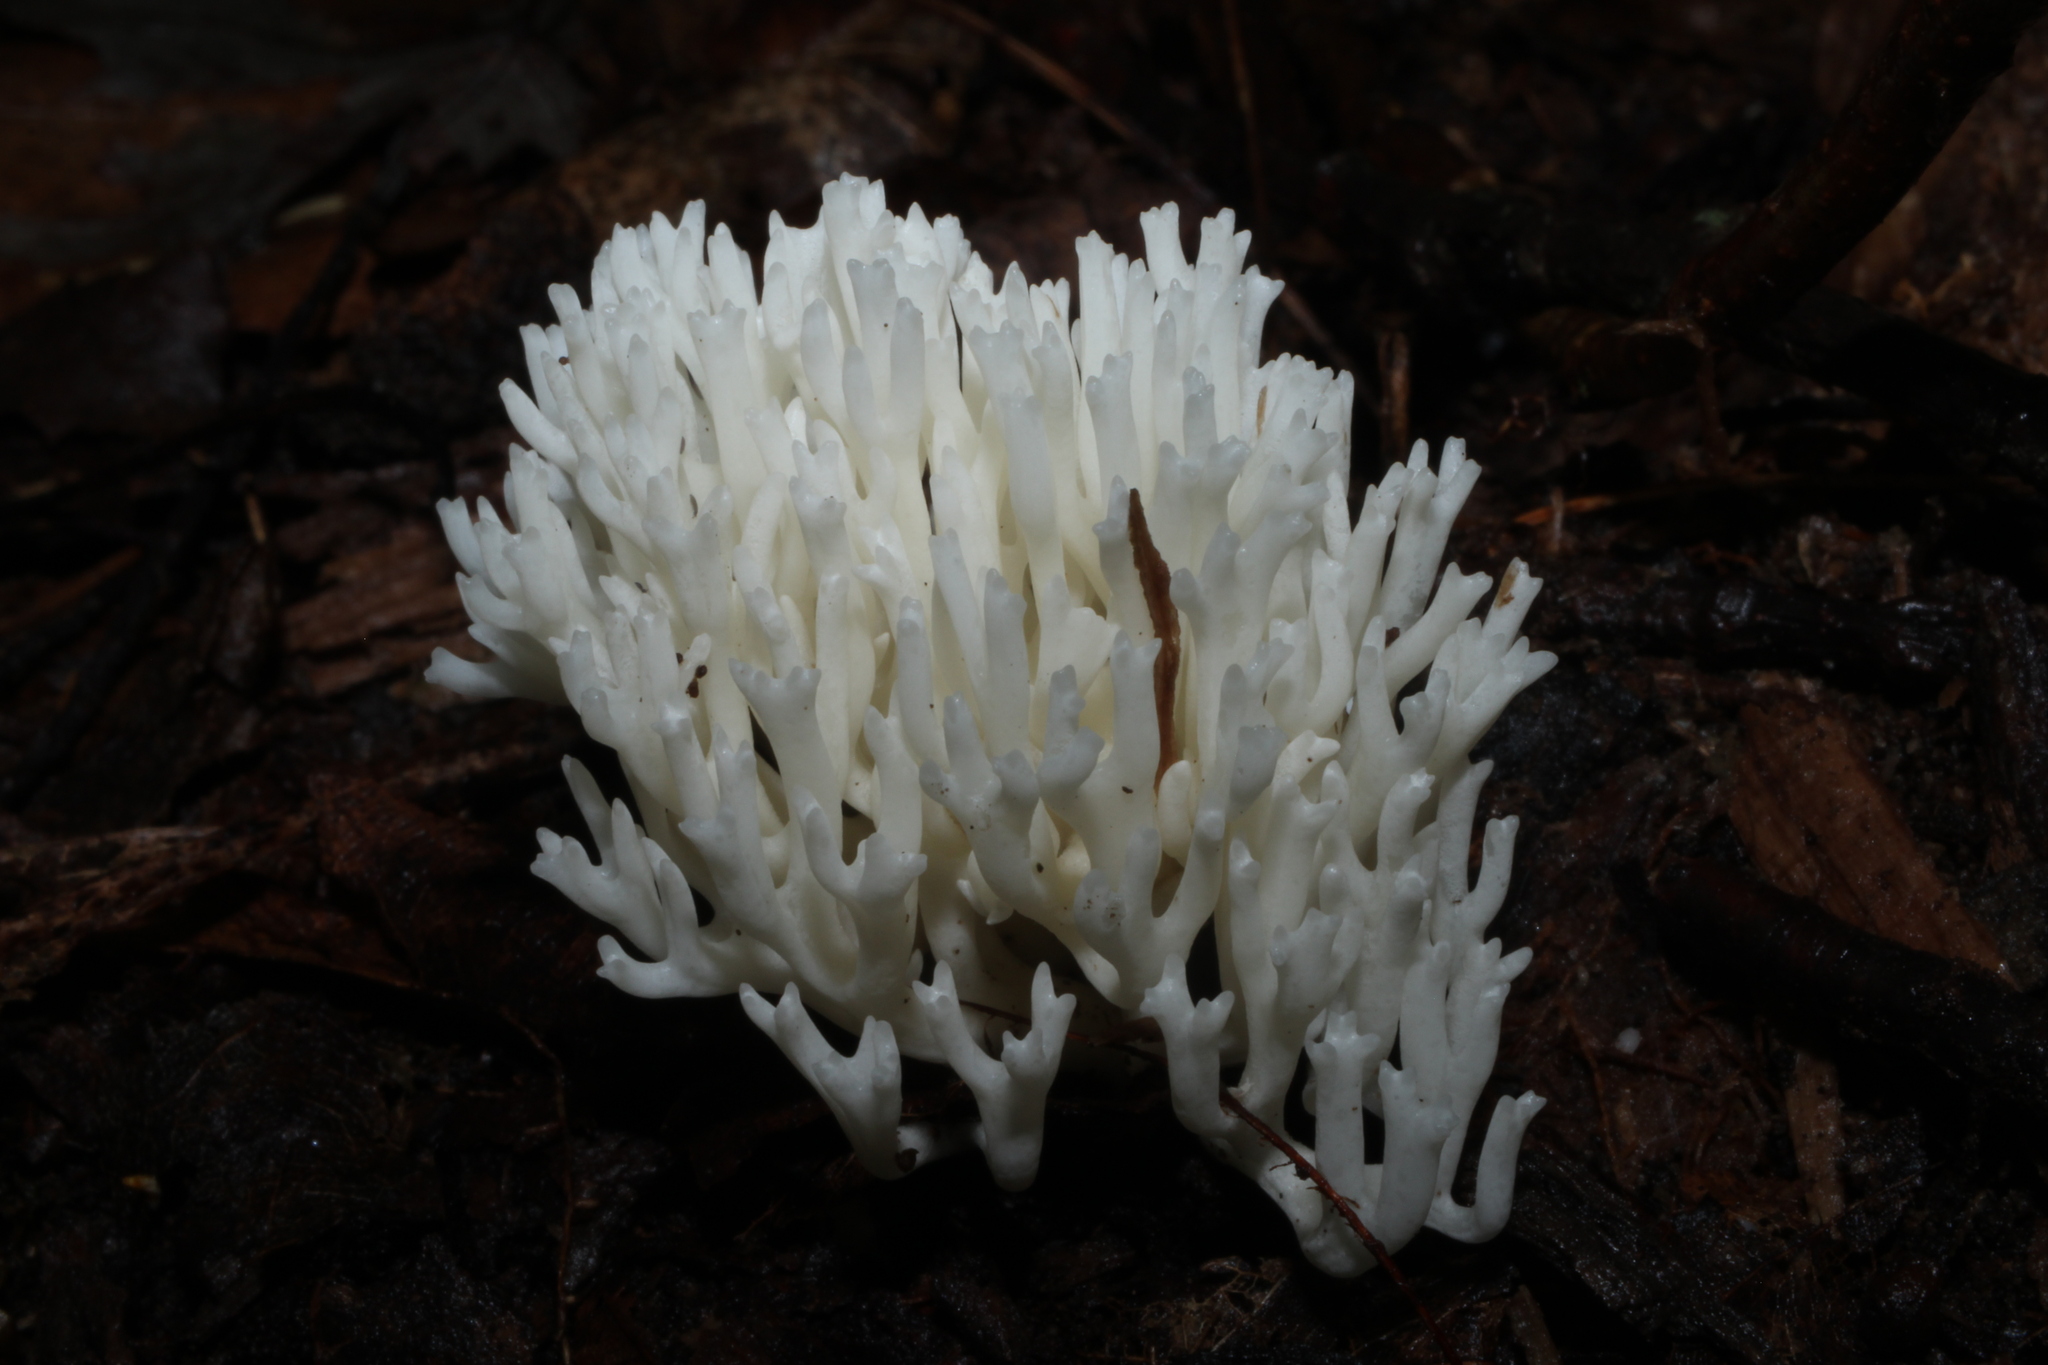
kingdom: Fungi
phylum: Basidiomycota
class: Agaricomycetes
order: Agaricales
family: Clavariaceae
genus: Ramariopsis
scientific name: Ramariopsis kunzei
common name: Ivory coral
